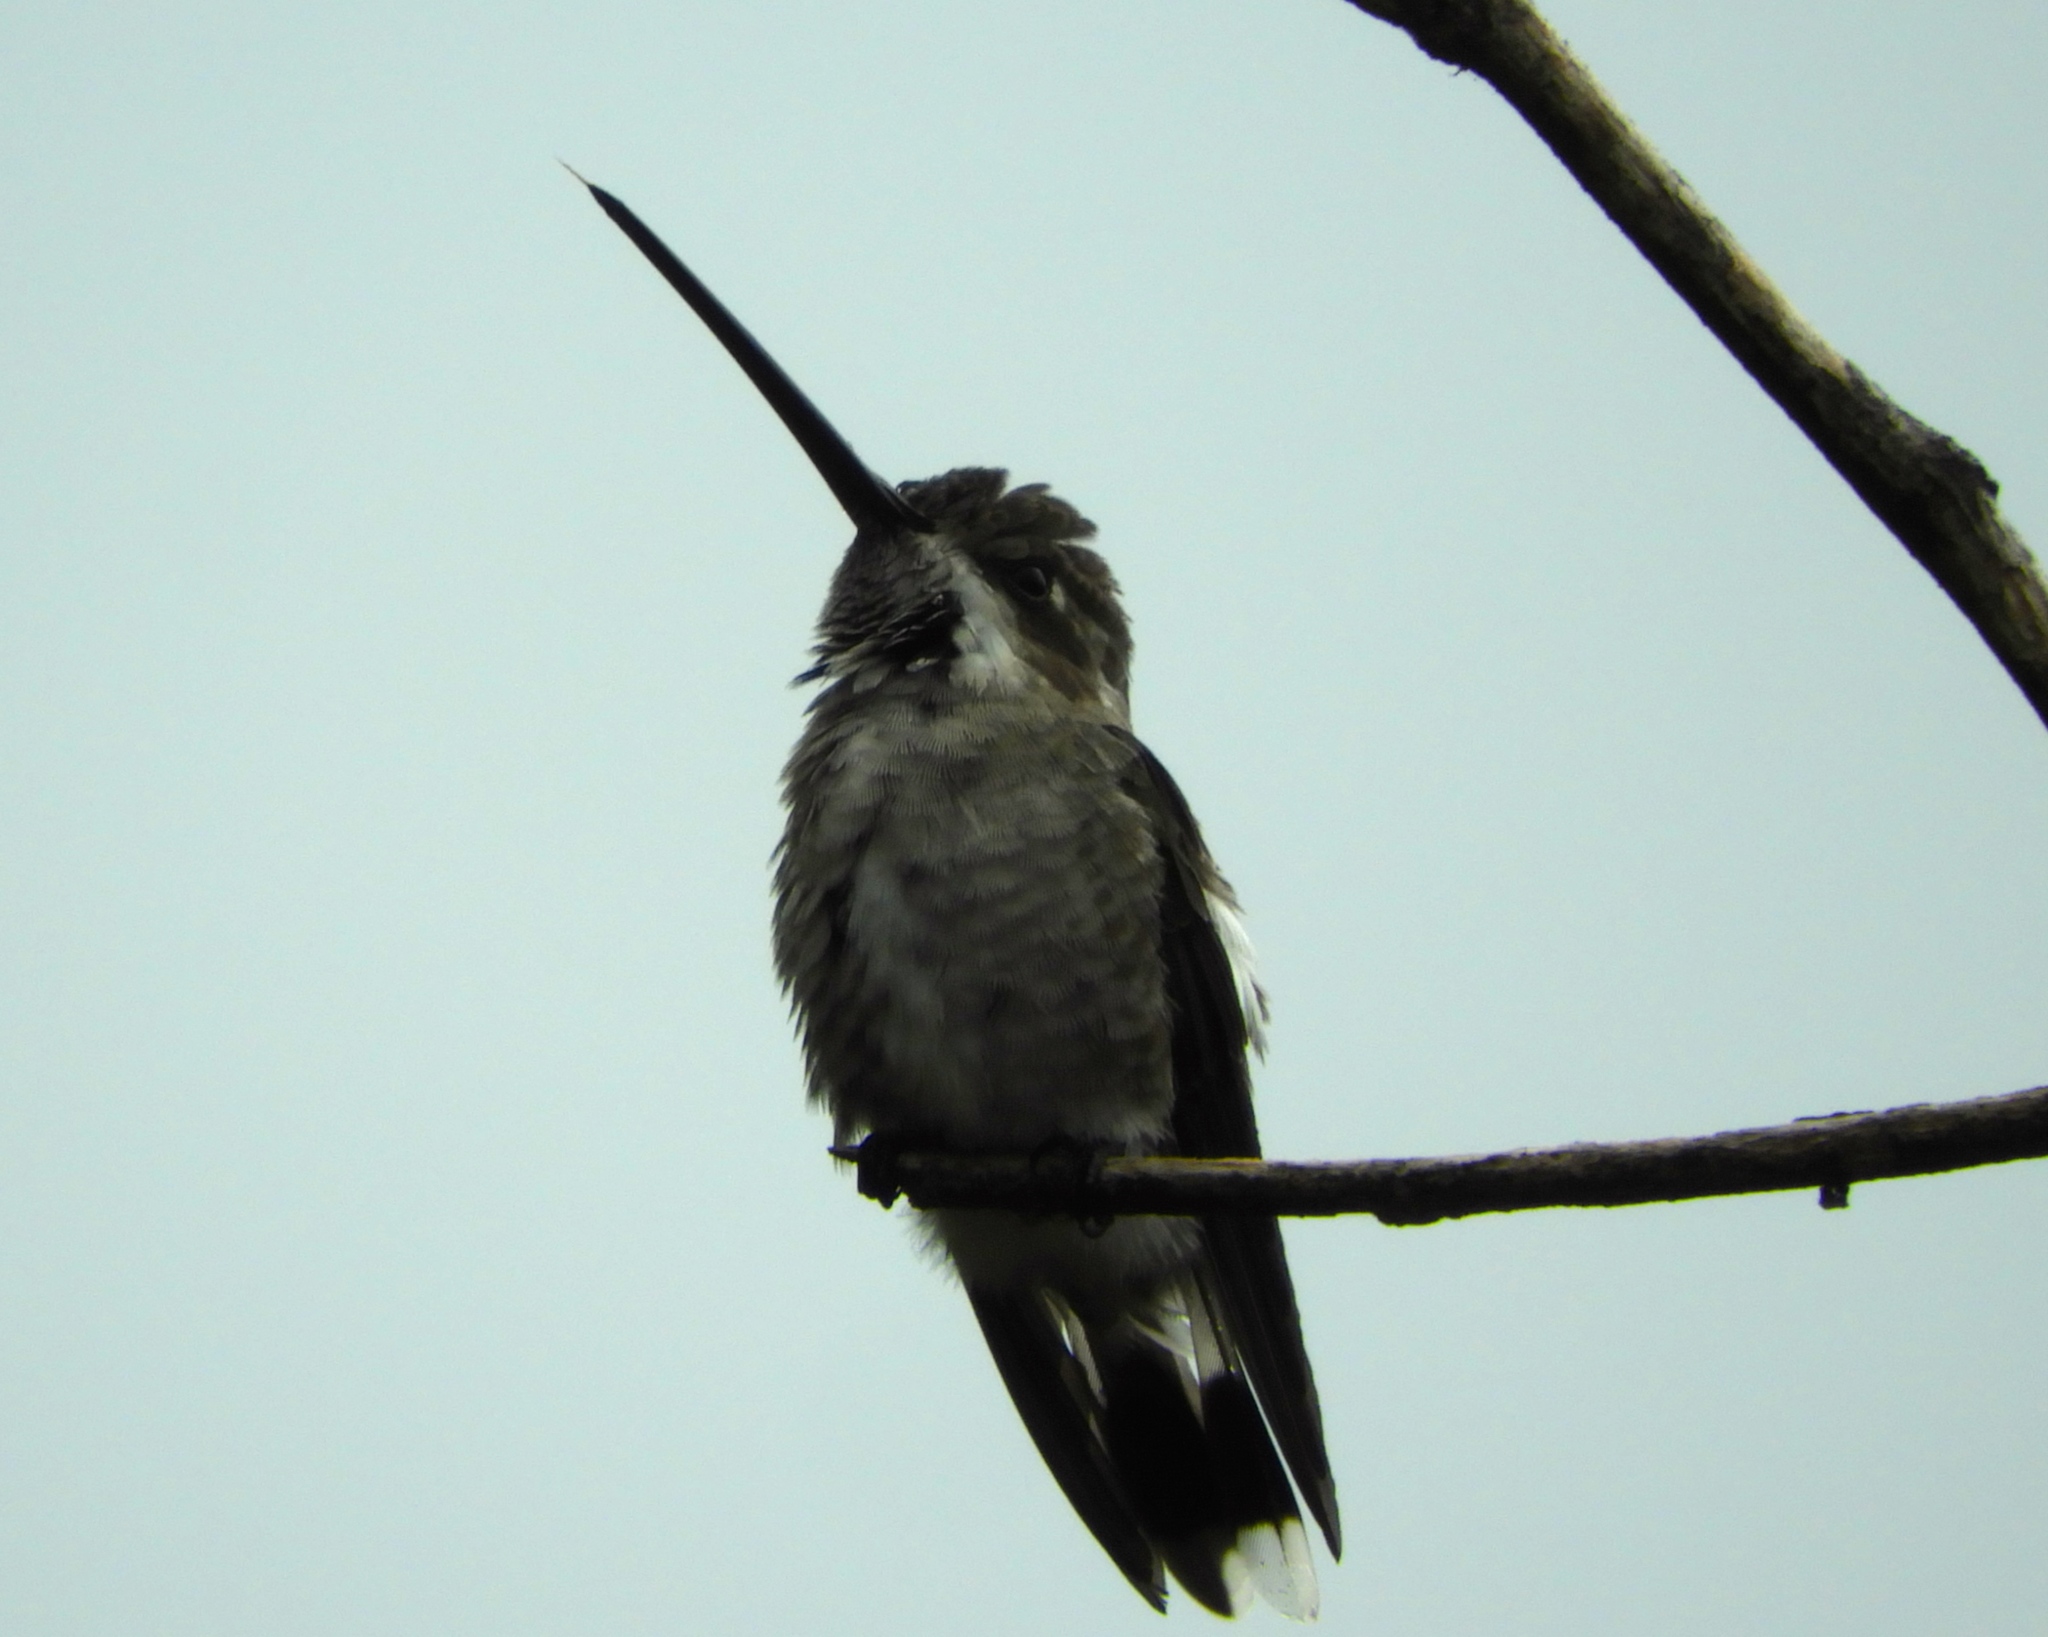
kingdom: Animalia
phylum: Chordata
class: Aves
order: Apodiformes
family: Trochilidae
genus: Heliomaster
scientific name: Heliomaster constantii
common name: Plain-capped starthroat
